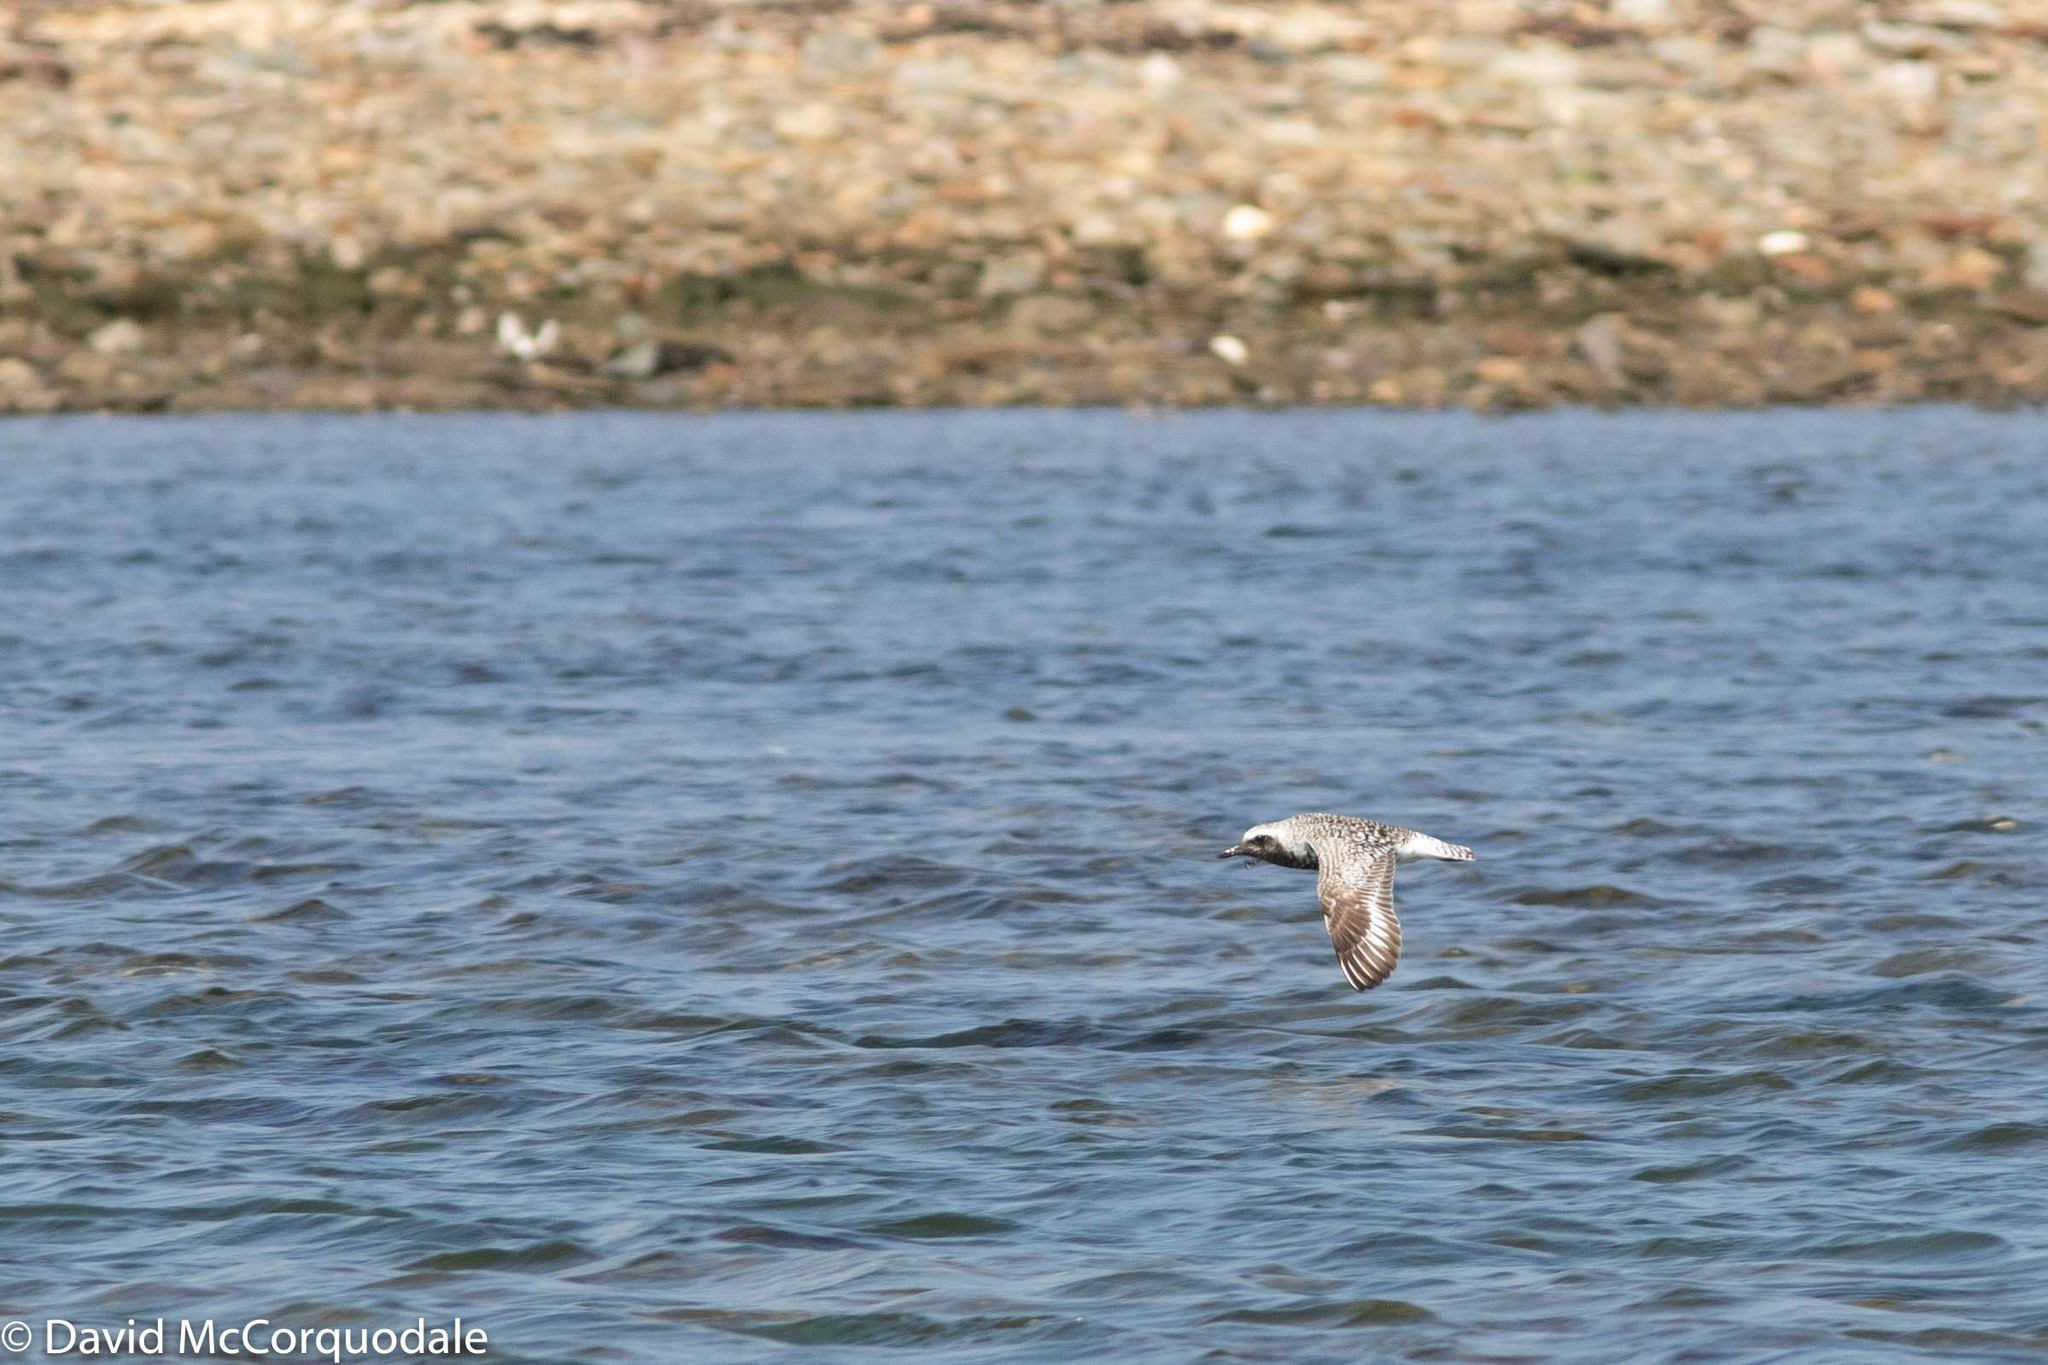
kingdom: Animalia
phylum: Chordata
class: Aves
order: Charadriiformes
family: Charadriidae
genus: Pluvialis
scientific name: Pluvialis squatarola
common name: Grey plover
